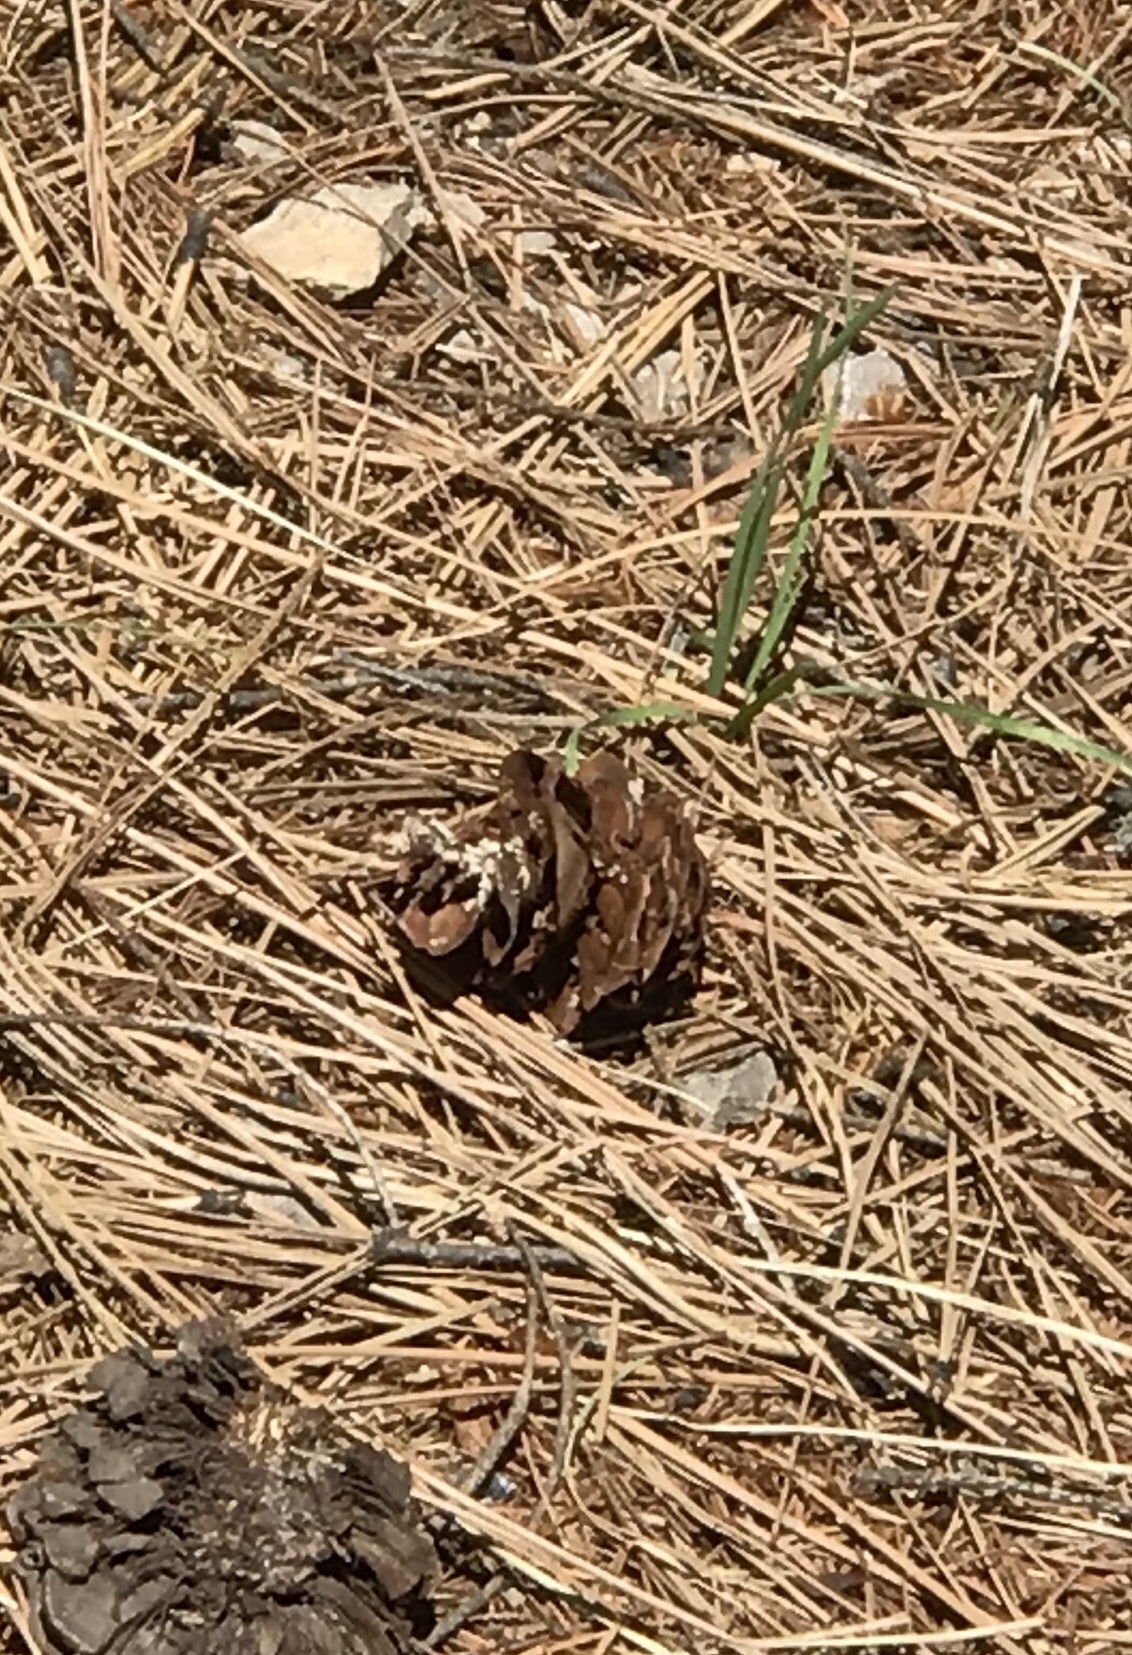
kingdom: Plantae
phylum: Tracheophyta
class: Pinopsida
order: Pinales
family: Pinaceae
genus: Pseudotsuga
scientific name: Pseudotsuga menziesii
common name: Douglas fir
